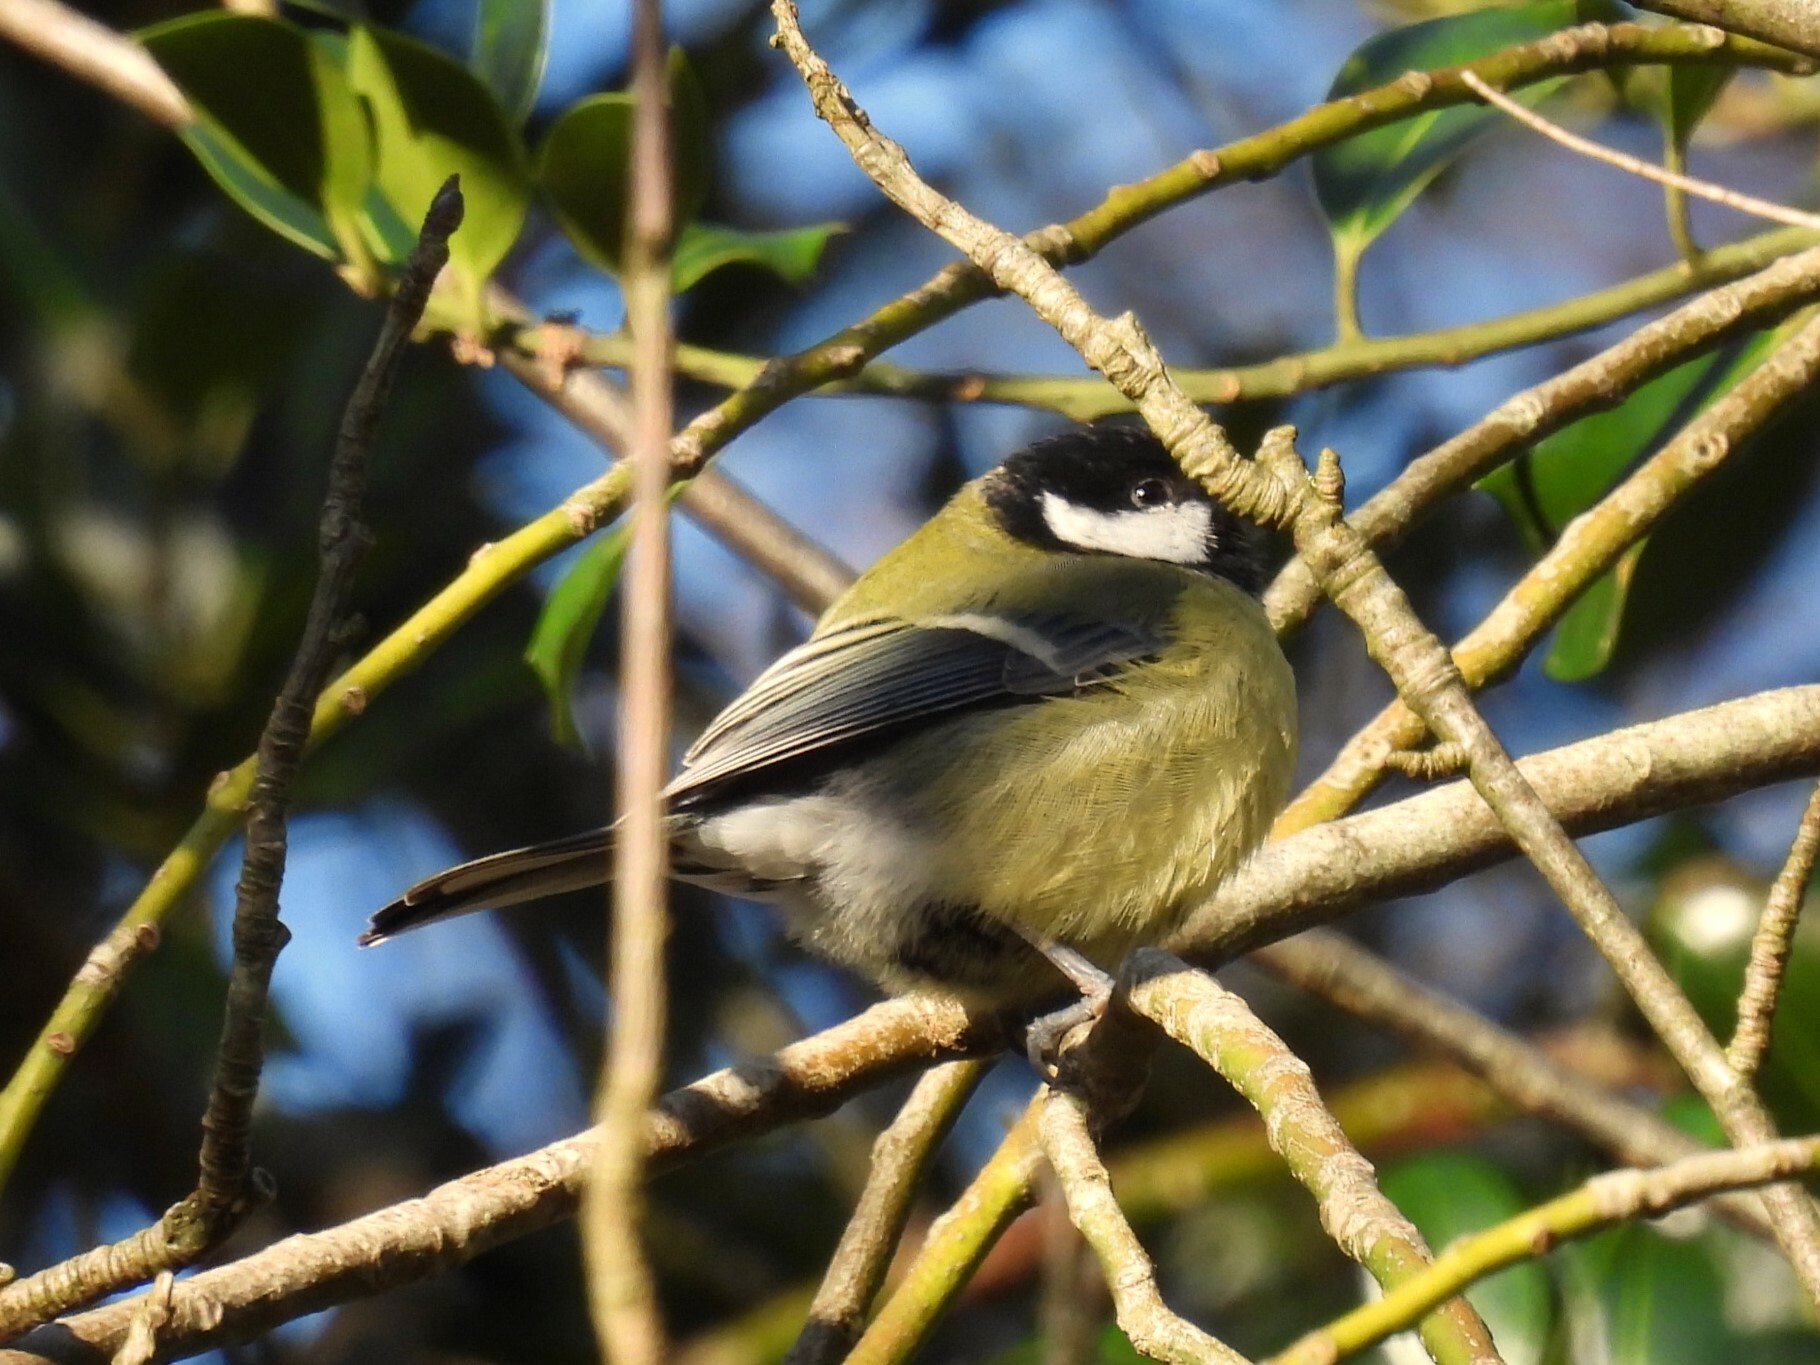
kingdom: Animalia
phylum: Chordata
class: Aves
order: Passeriformes
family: Paridae
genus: Parus
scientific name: Parus major
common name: Great tit
